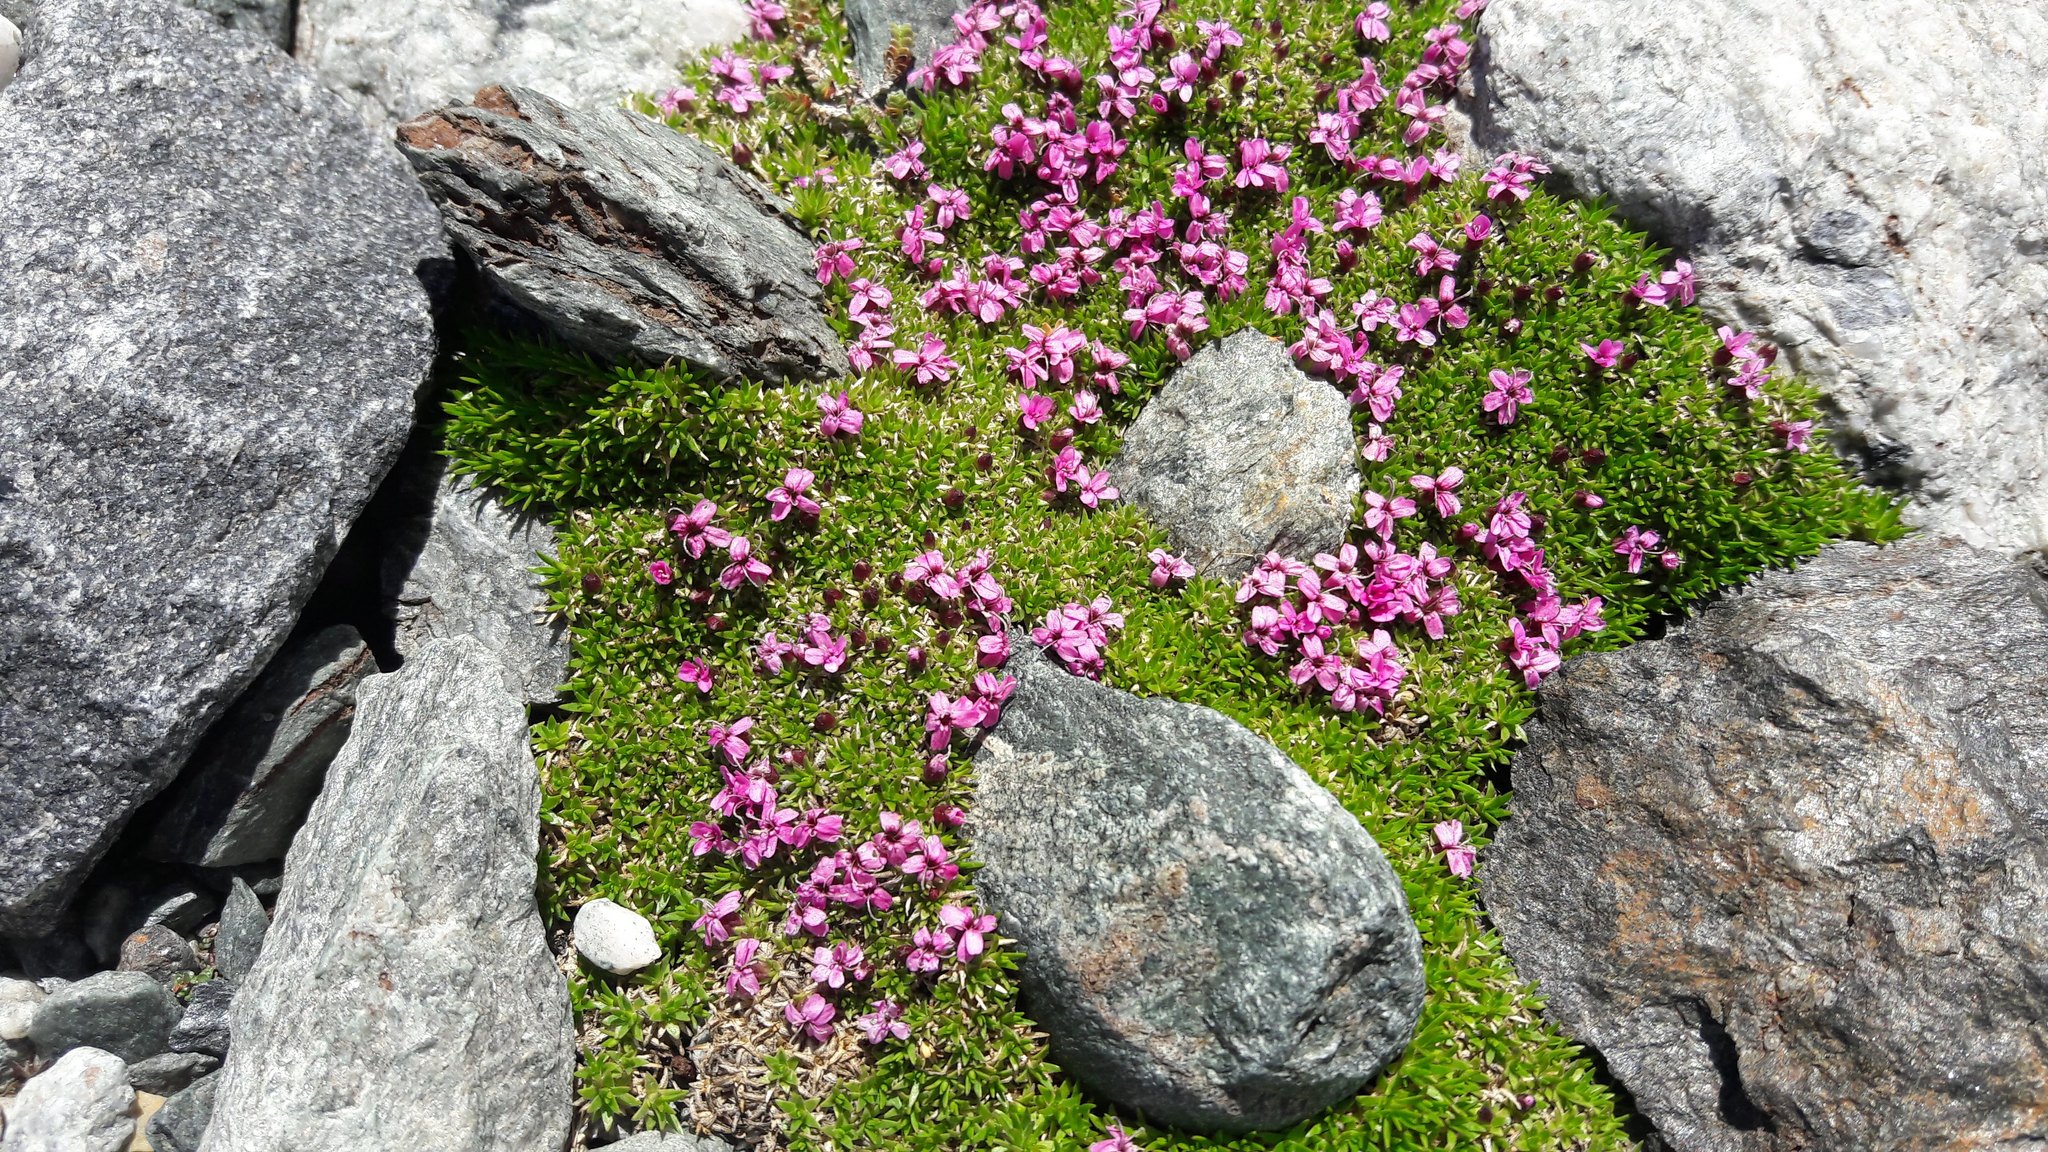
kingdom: Plantae
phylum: Tracheophyta
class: Magnoliopsida
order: Caryophyllales
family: Caryophyllaceae
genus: Silene
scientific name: Silene acaulis
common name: Moss campion
